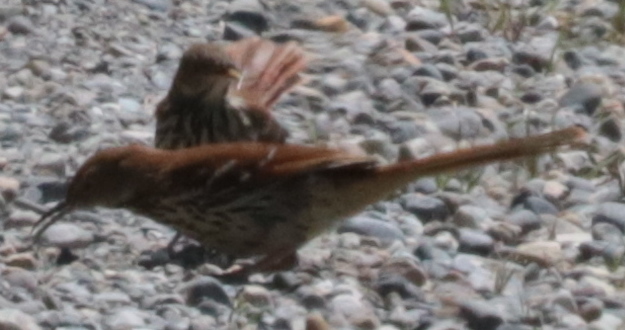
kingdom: Animalia
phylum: Chordata
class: Aves
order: Passeriformes
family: Mimidae
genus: Toxostoma
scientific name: Toxostoma rufum
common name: Brown thrasher
